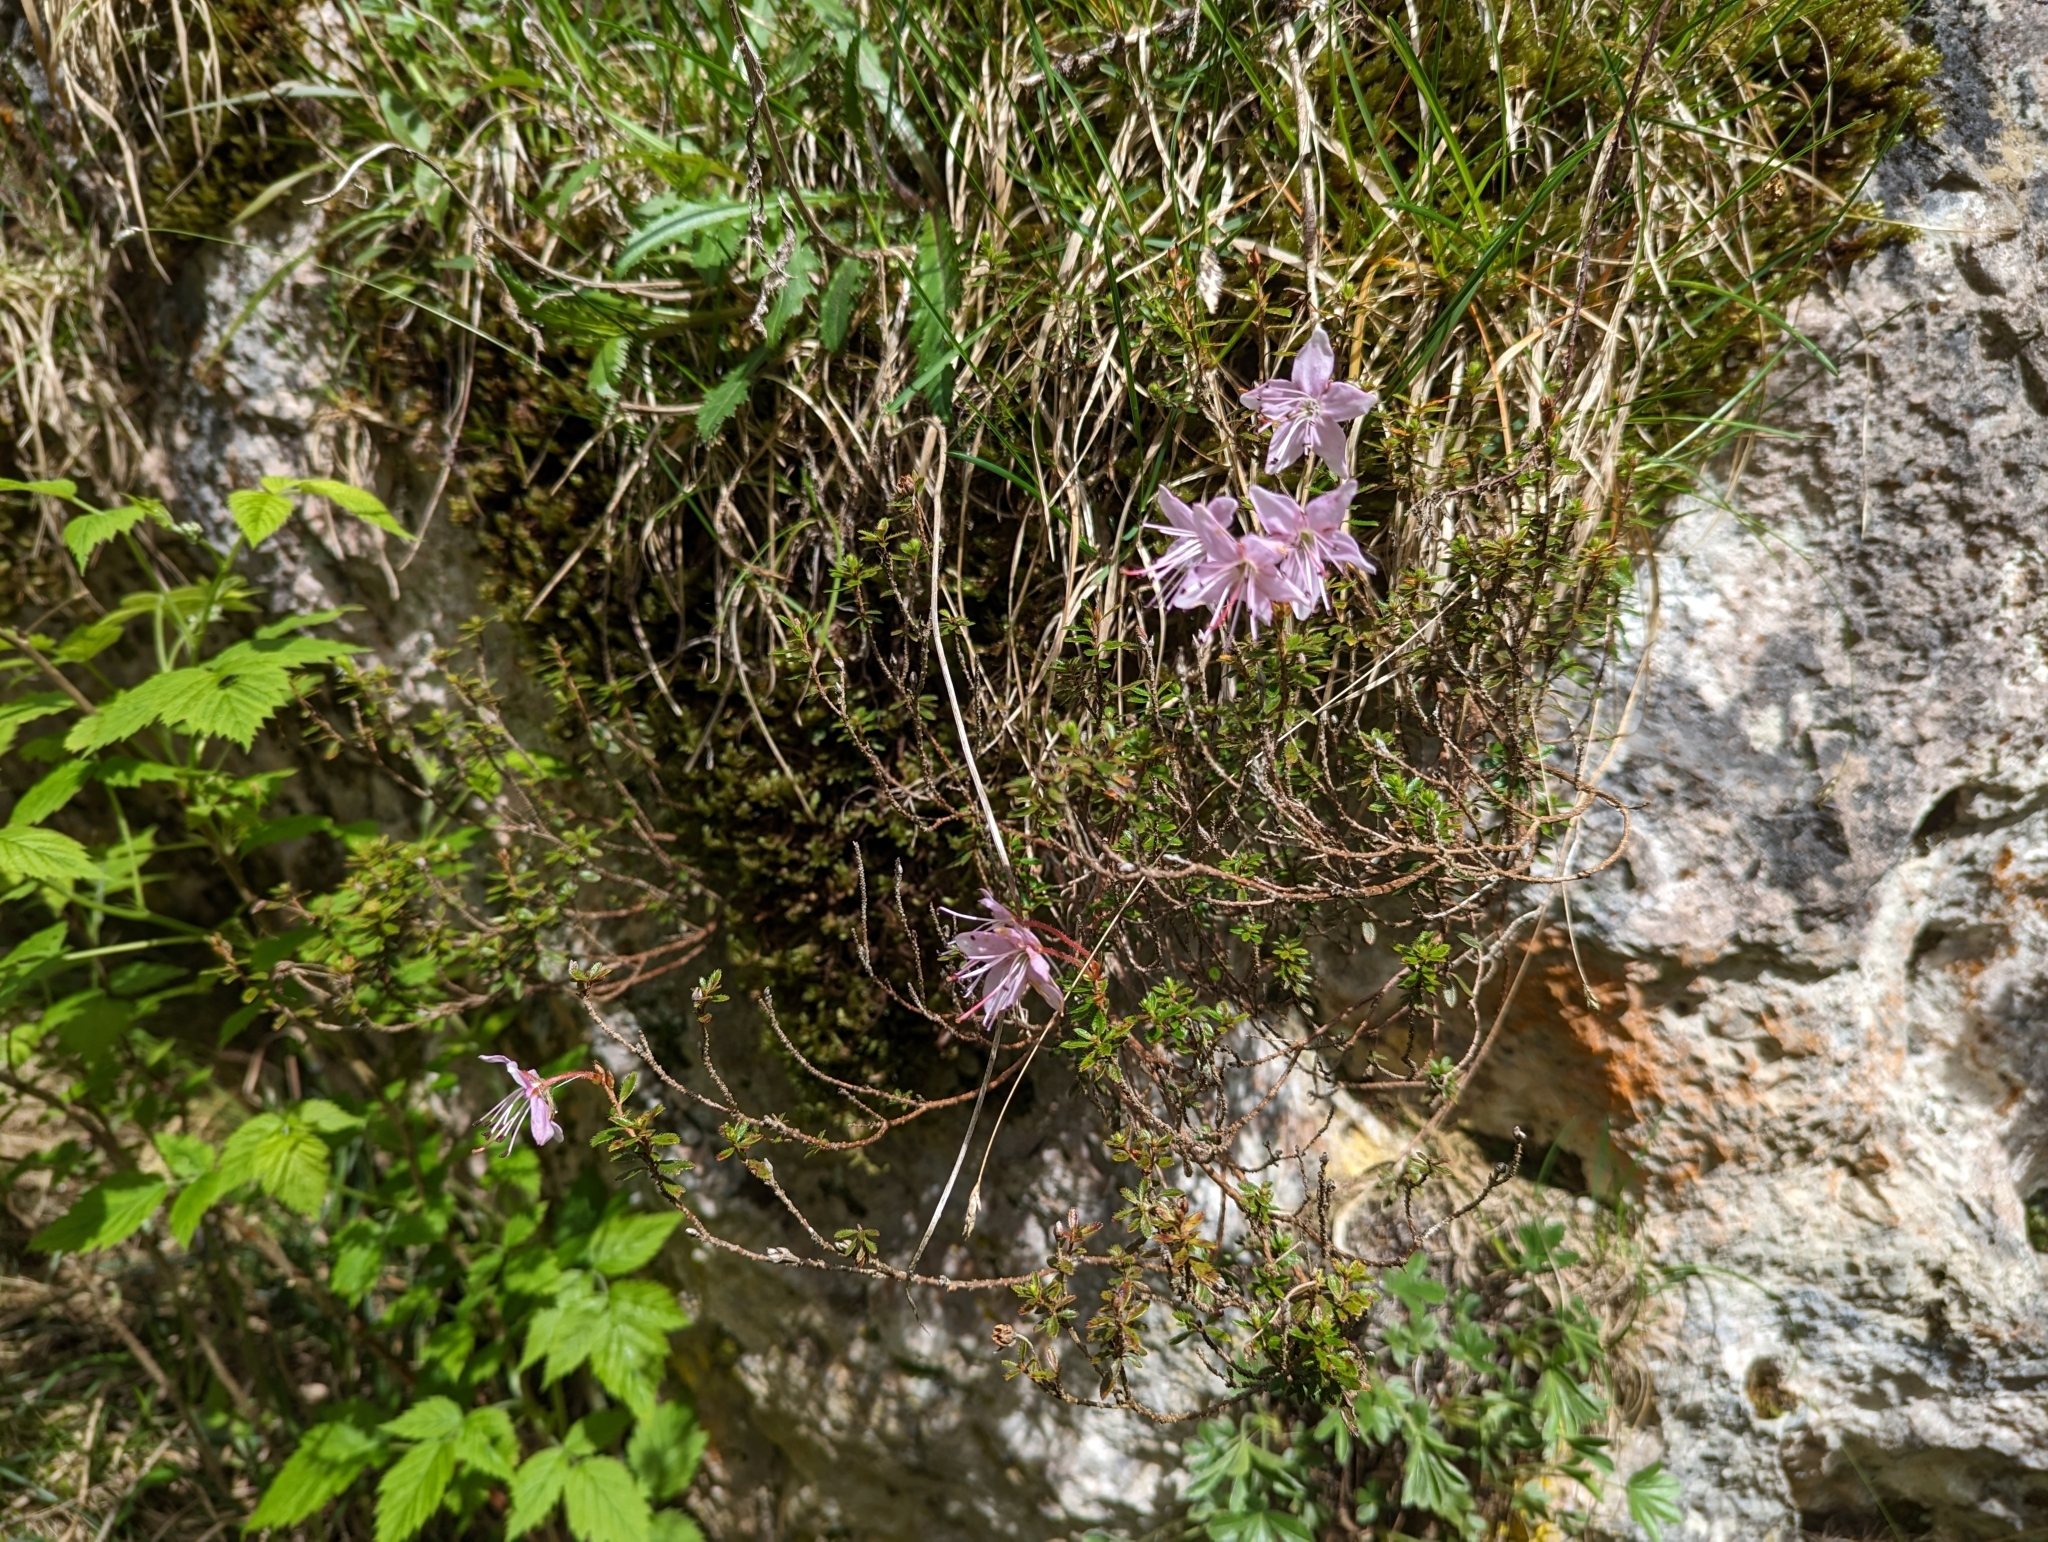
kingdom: Plantae
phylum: Tracheophyta
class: Magnoliopsida
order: Ericales
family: Ericaceae
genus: Rhodothamnus
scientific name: Rhodothamnus chamaecistus
